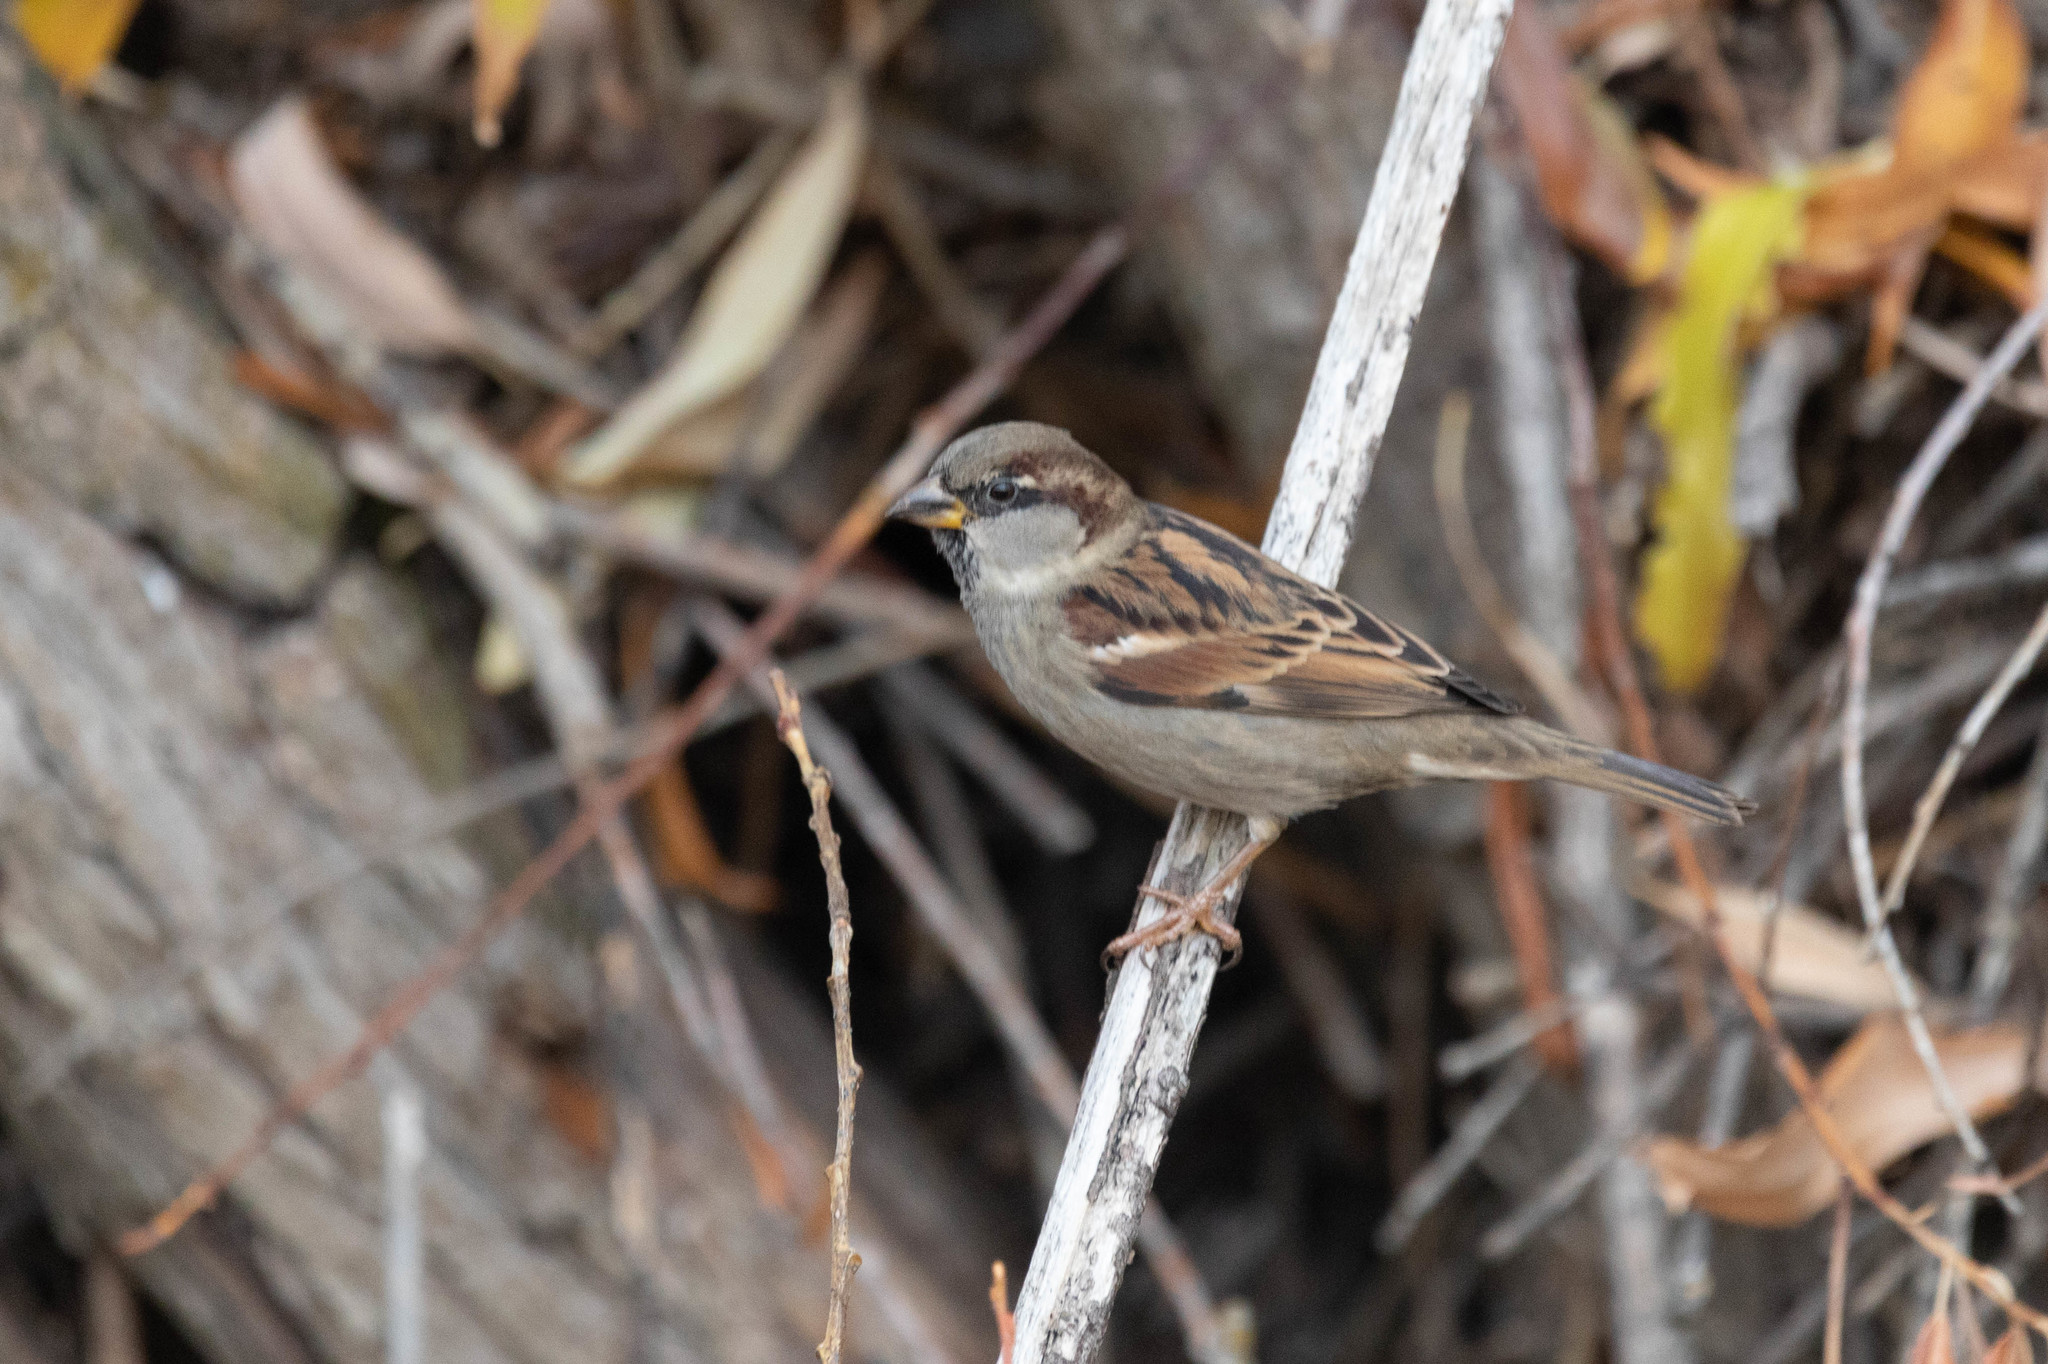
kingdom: Animalia
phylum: Chordata
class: Aves
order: Passeriformes
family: Passeridae
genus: Passer
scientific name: Passer domesticus
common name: House sparrow
